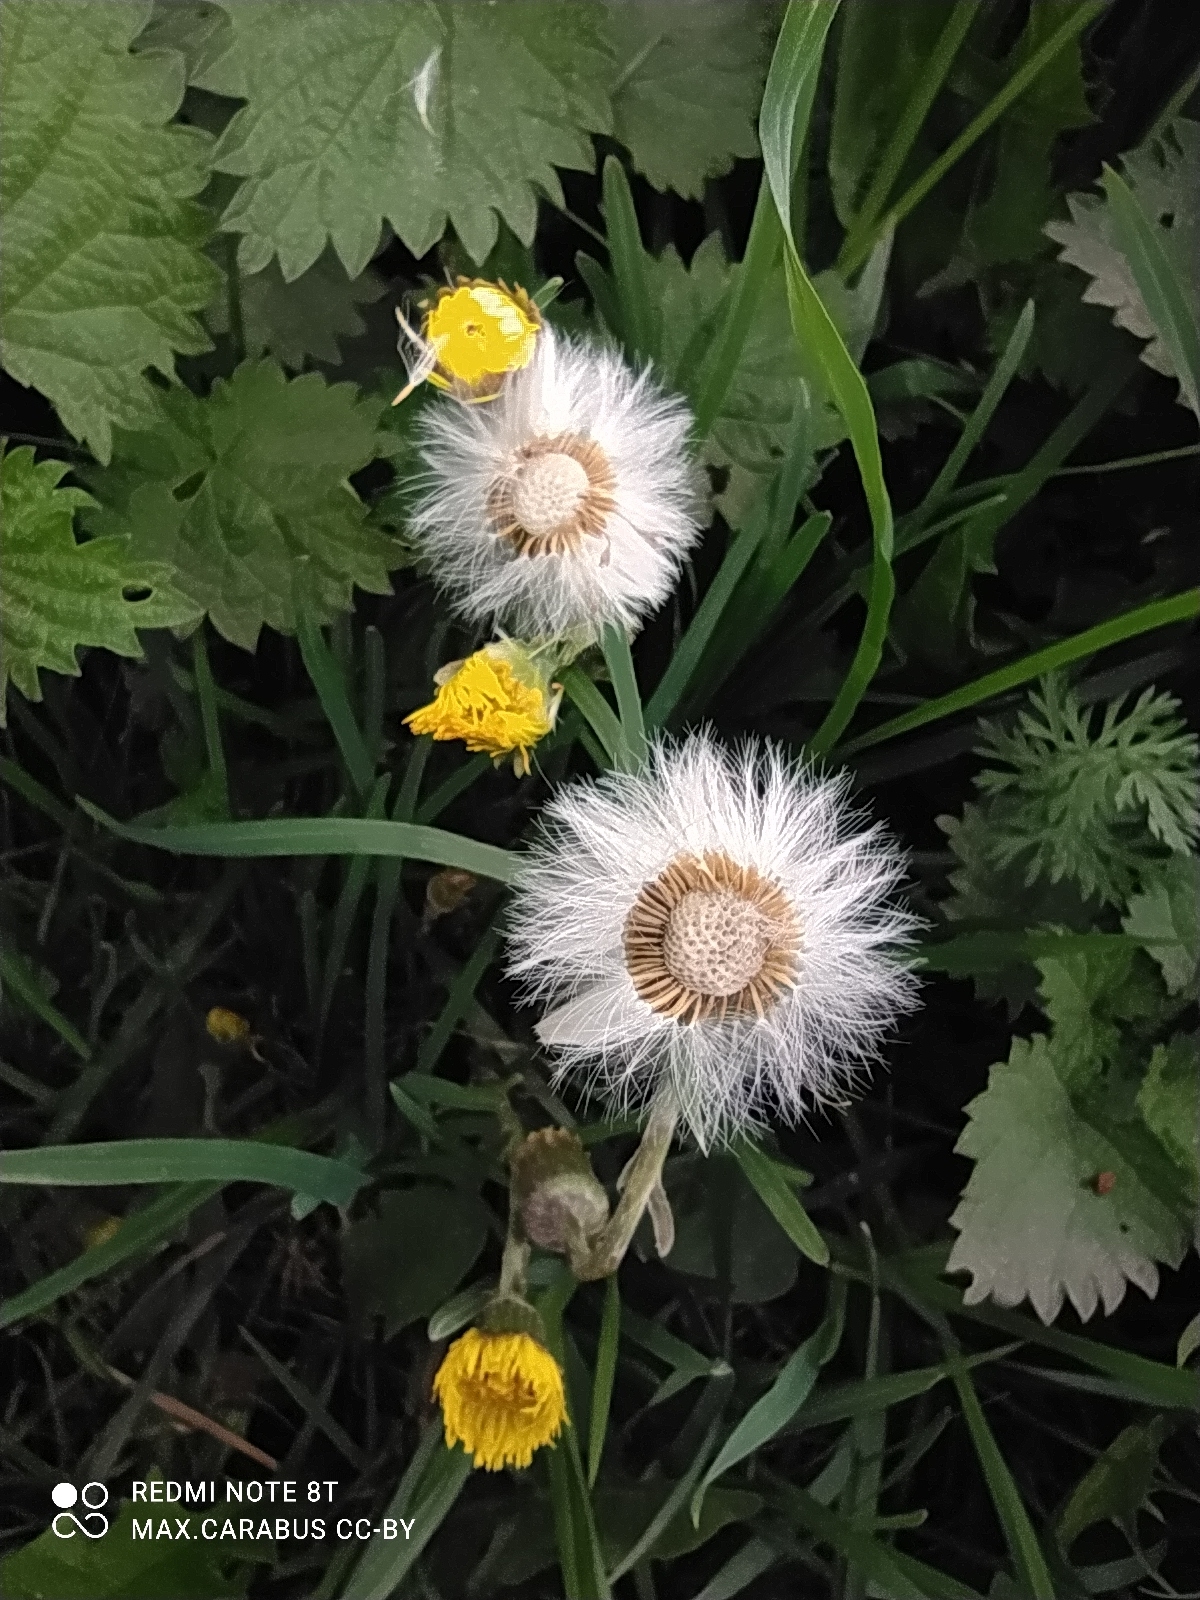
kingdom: Plantae
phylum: Tracheophyta
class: Magnoliopsida
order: Asterales
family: Asteraceae
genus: Tussilago
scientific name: Tussilago farfara
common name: Coltsfoot
